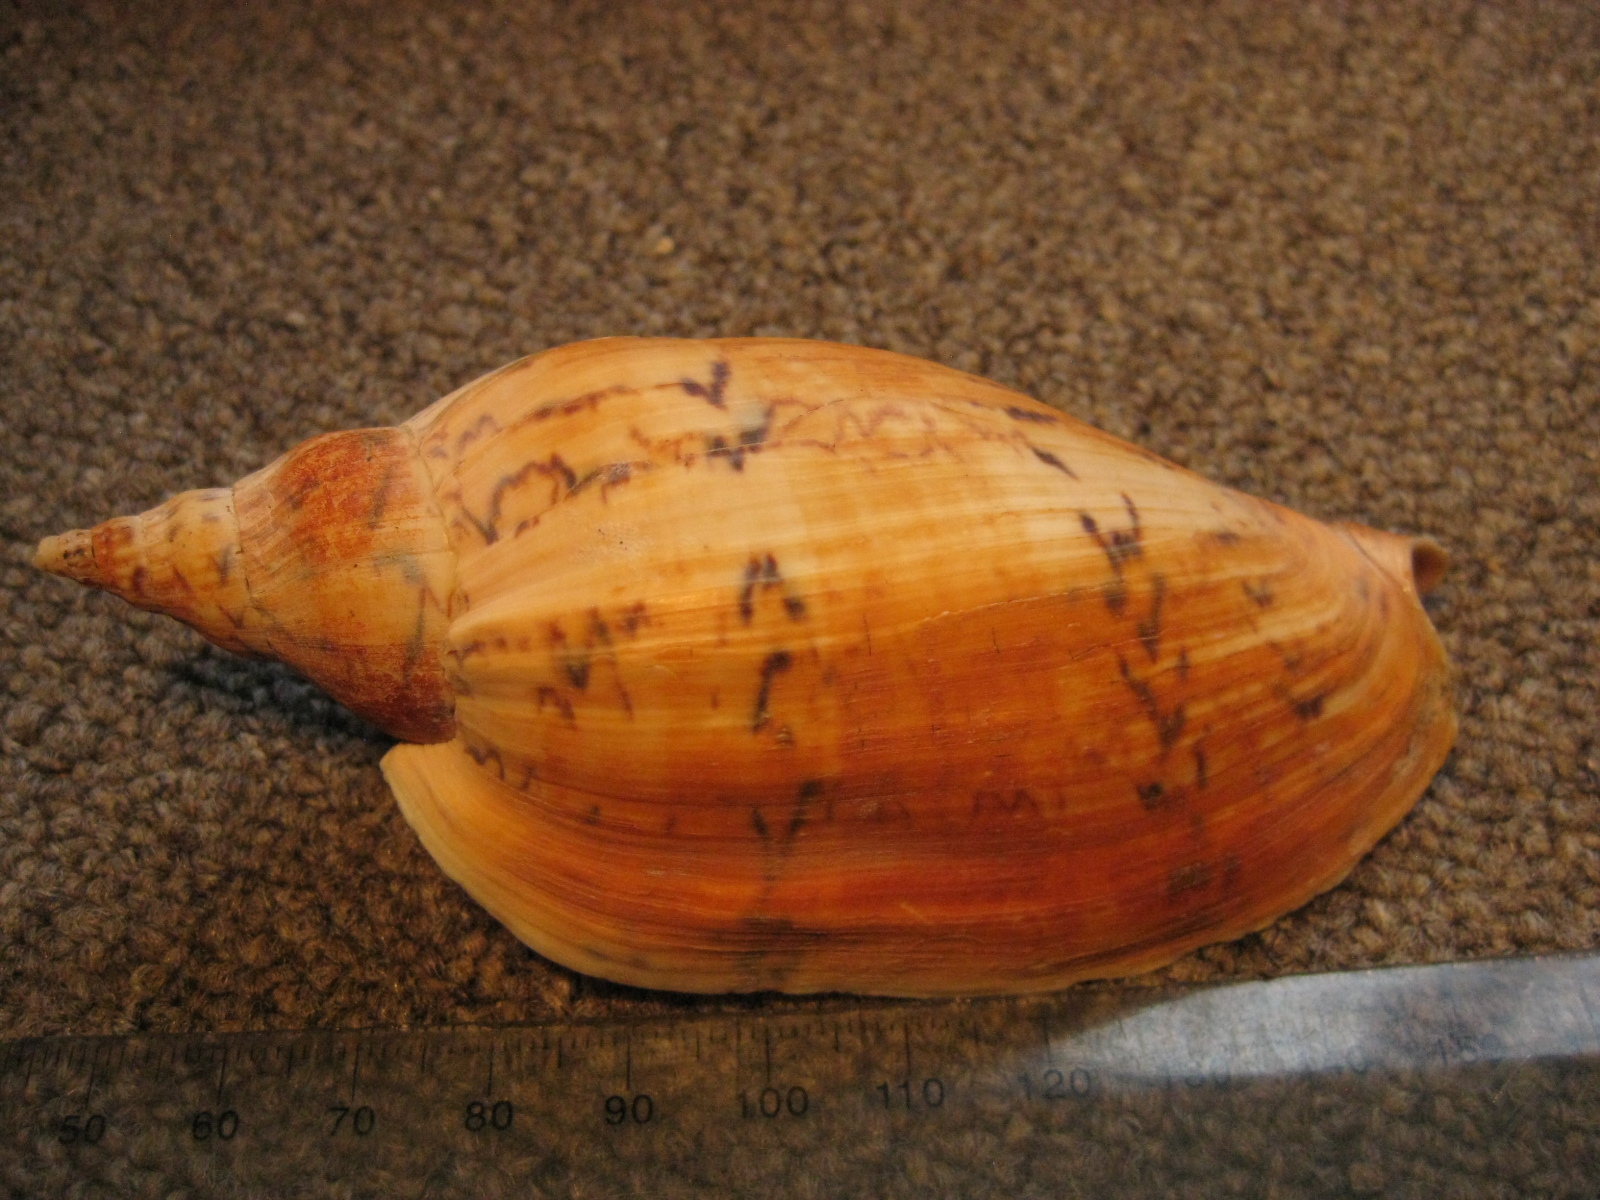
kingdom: Animalia
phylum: Mollusca
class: Gastropoda
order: Neogastropoda
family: Volutidae
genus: Alcithoe
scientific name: Alcithoe arabica
